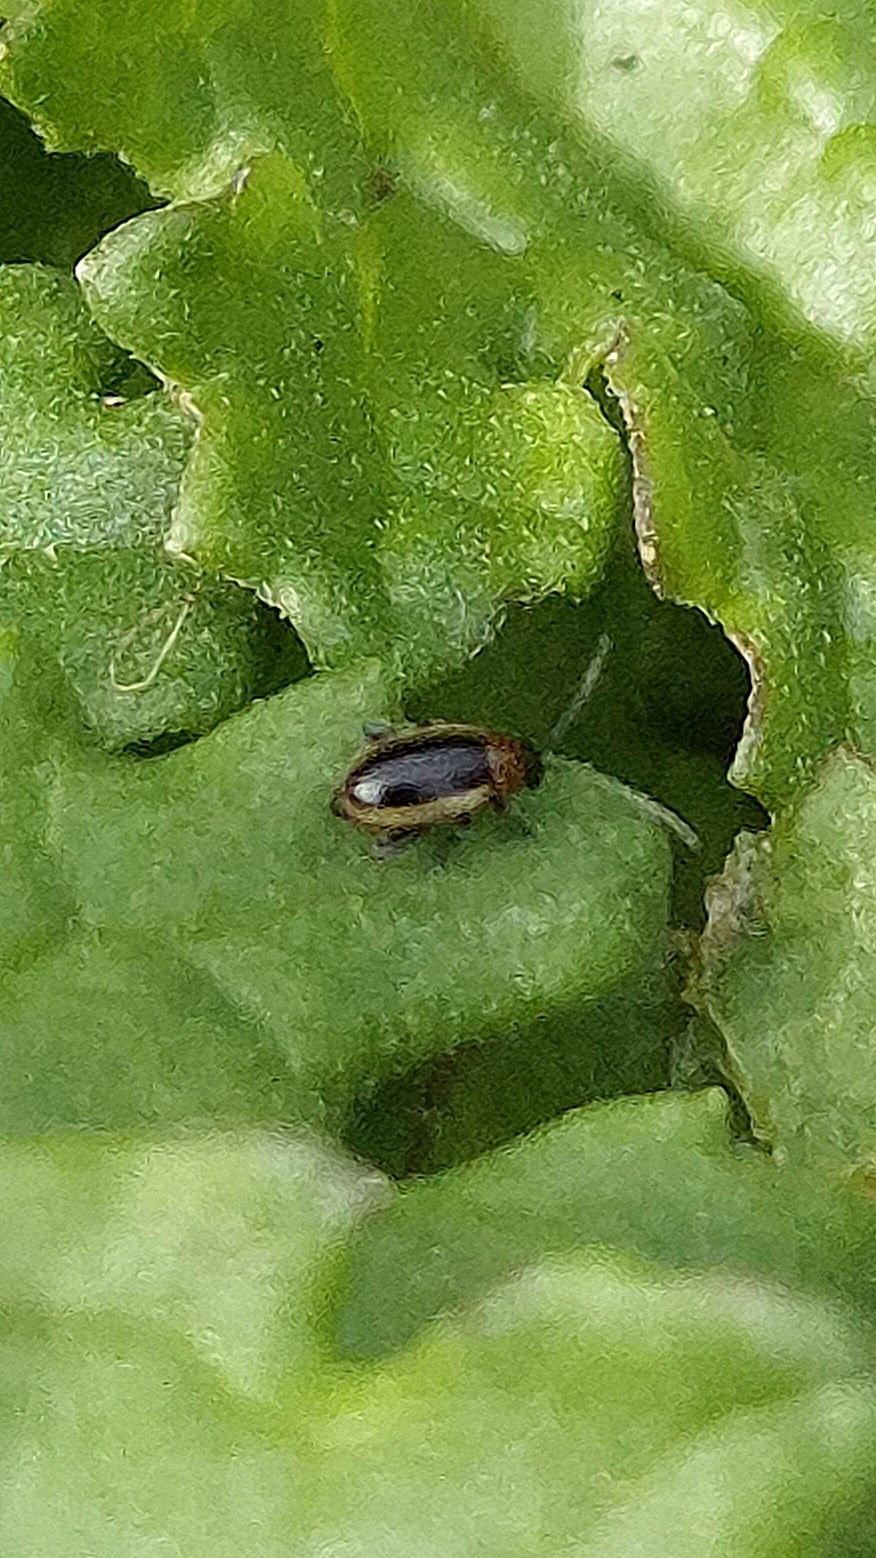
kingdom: Animalia
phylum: Arthropoda
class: Insecta
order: Coleoptera
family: Chrysomelidae
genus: Longitarsus
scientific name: Longitarsus dorsalis
